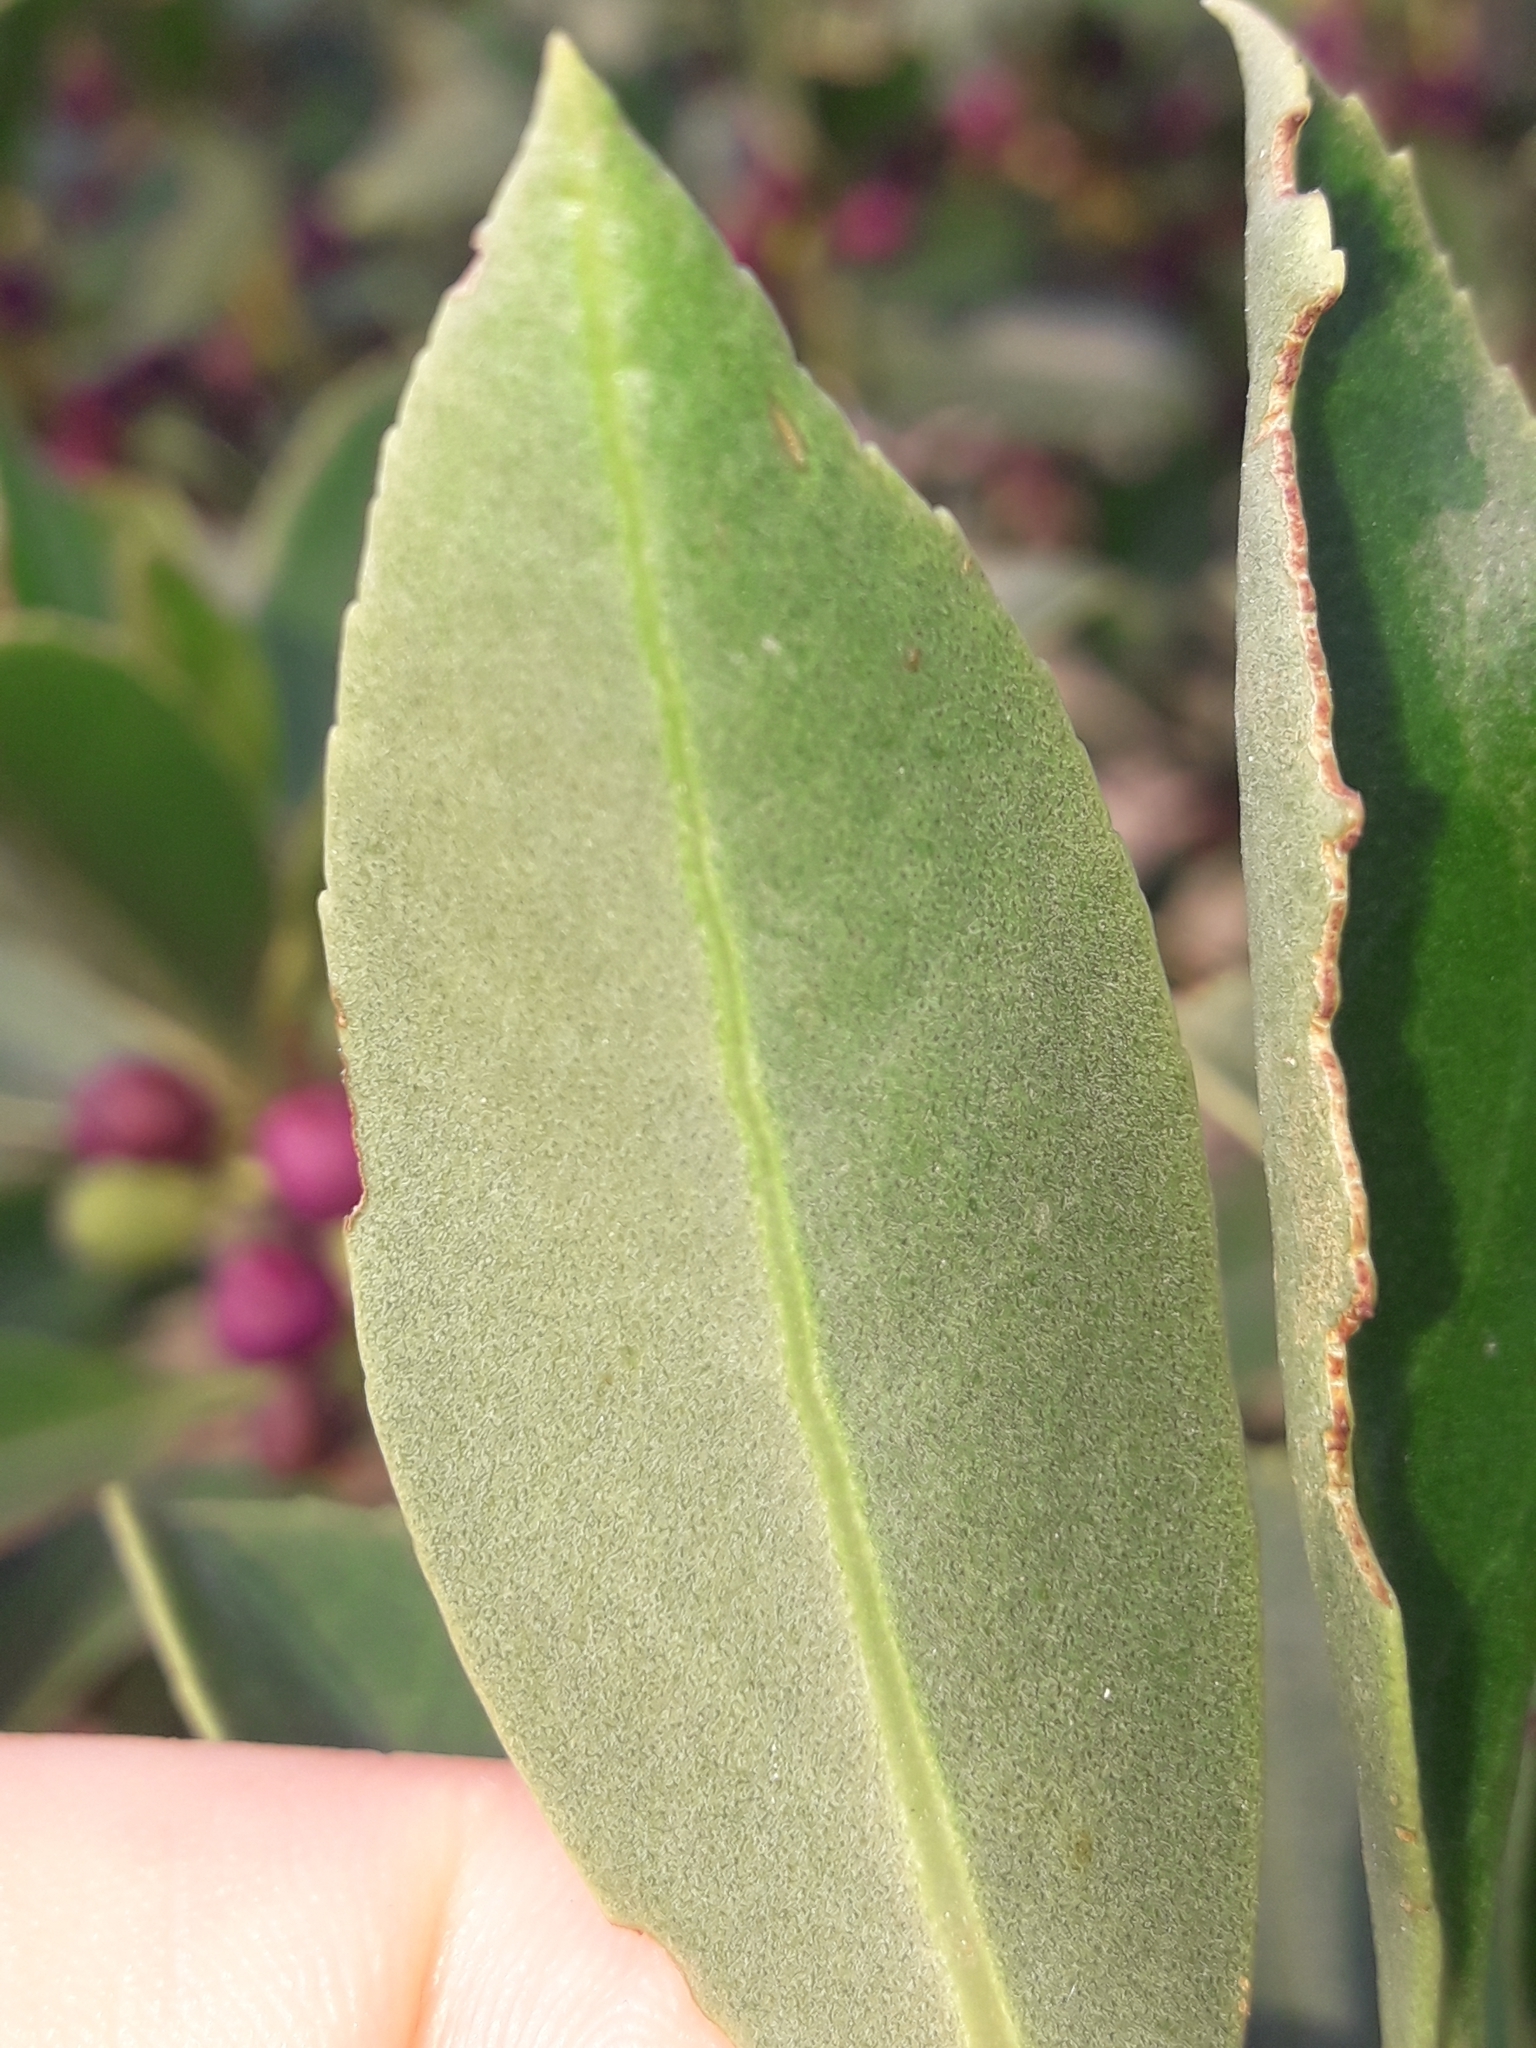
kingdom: Plantae
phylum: Tracheophyta
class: Magnoliopsida
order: Lamiales
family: Scrophulariaceae
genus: Myoporum
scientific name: Myoporum insulare
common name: Common boobialla
